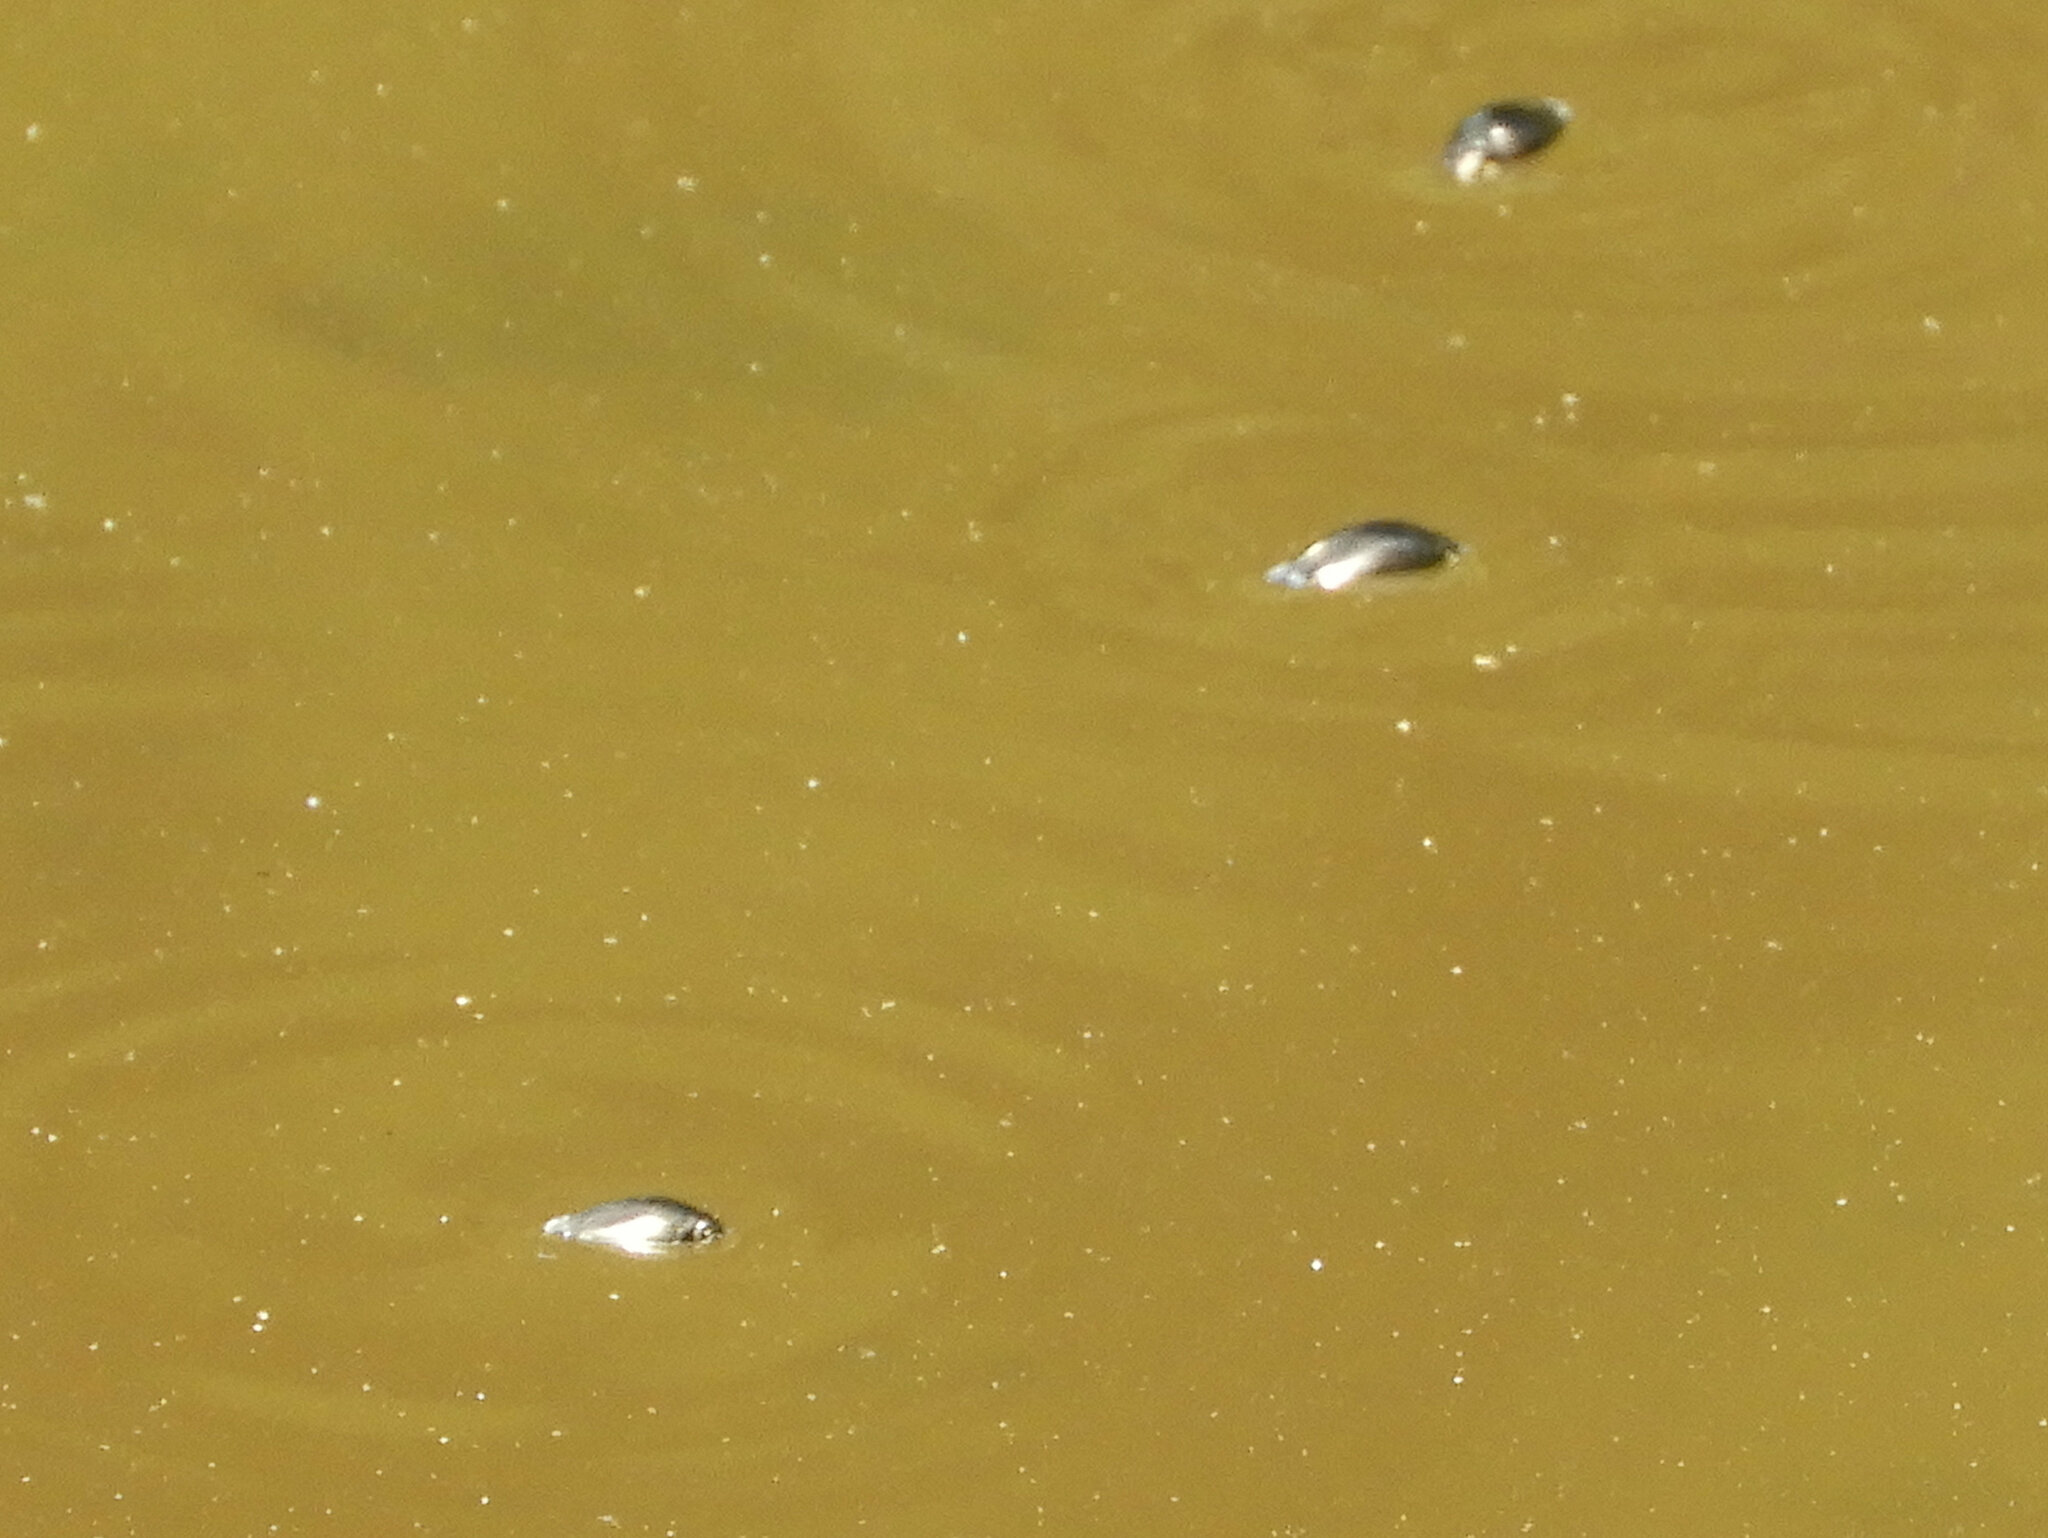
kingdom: Animalia
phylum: Arthropoda
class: Insecta
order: Coleoptera
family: Gyrinidae
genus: Gyrinus
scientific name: Gyrinus
